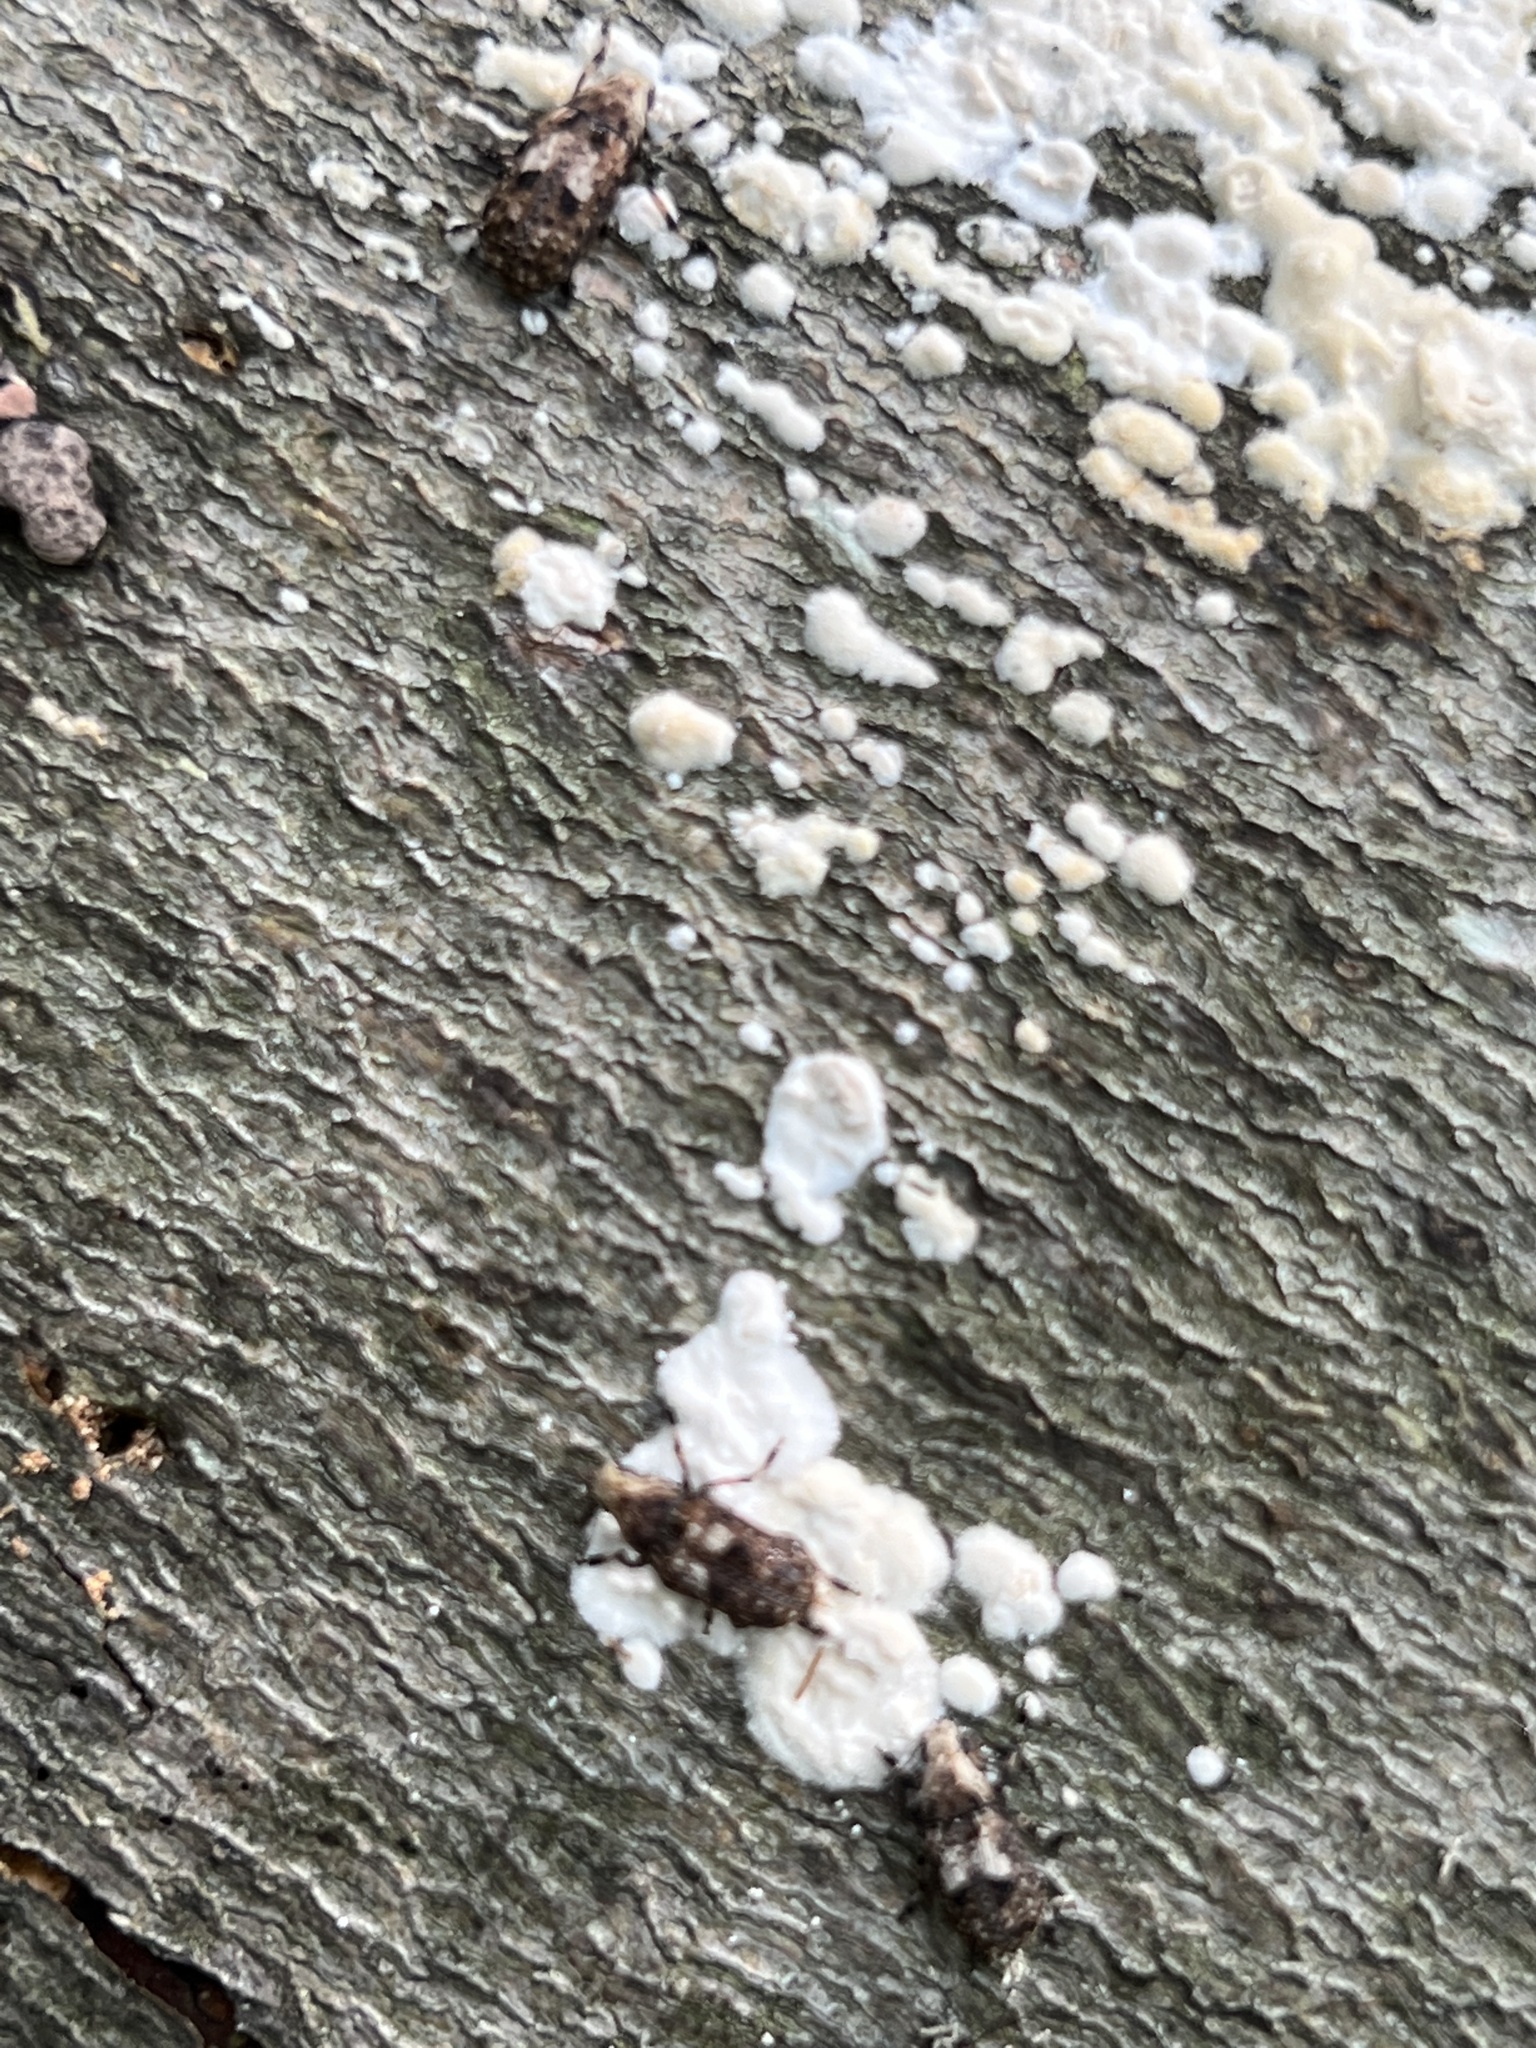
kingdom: Animalia
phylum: Arthropoda
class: Insecta
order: Coleoptera
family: Anthribidae
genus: Euparius
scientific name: Euparius marmoreus
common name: Marbled fungus weevil
